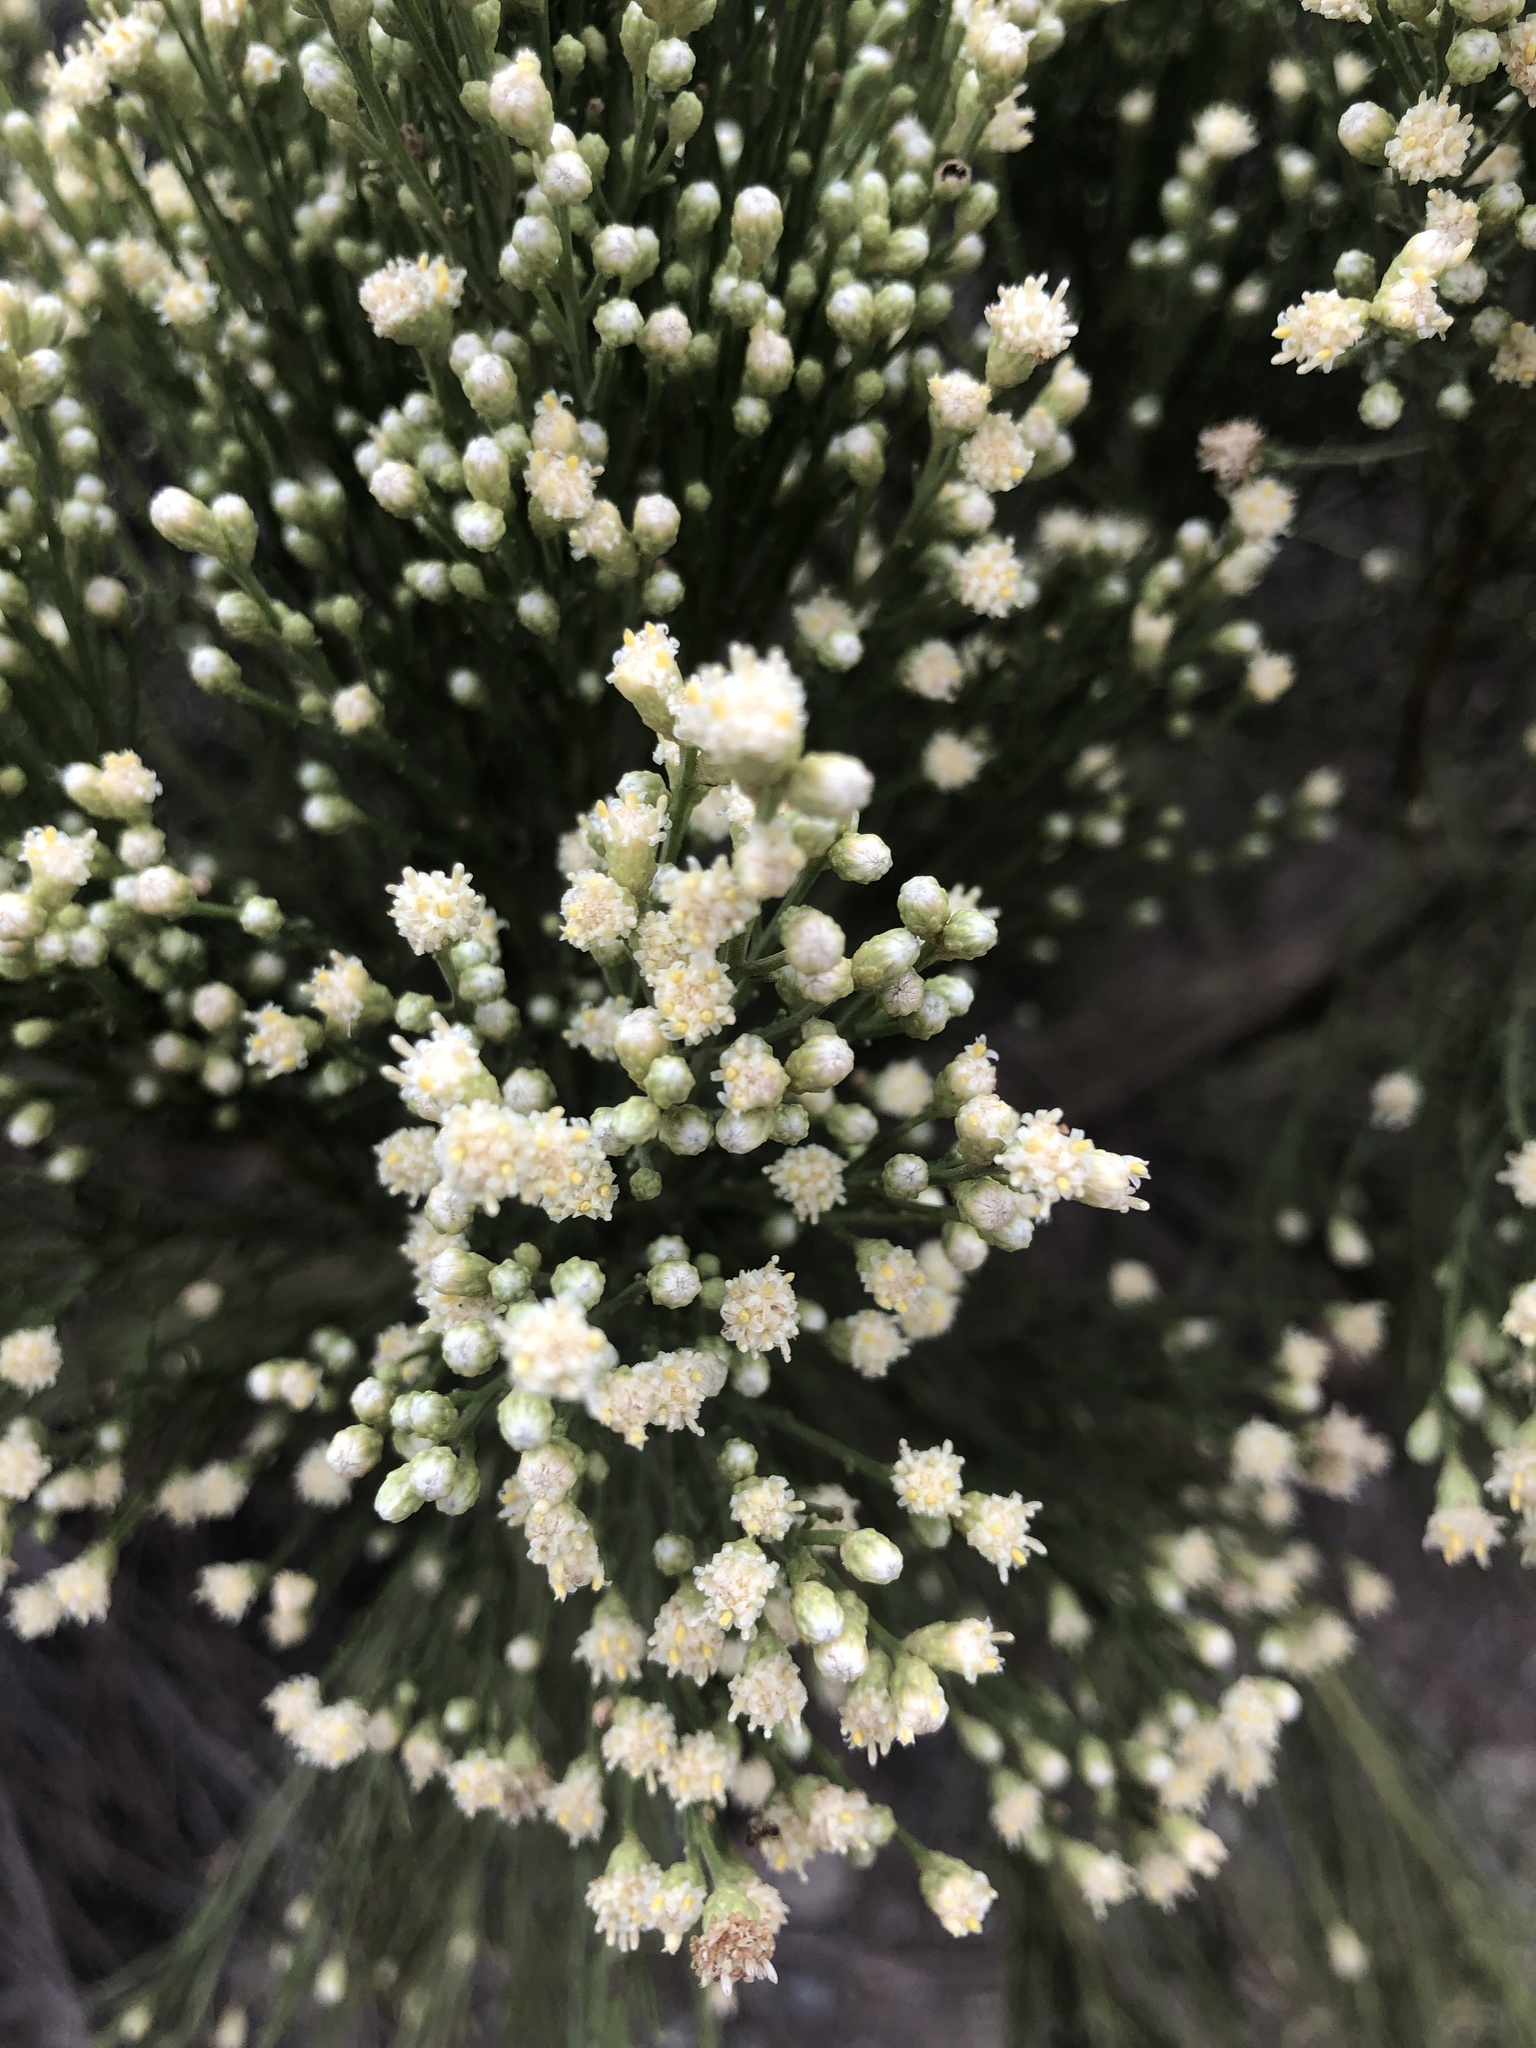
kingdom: Plantae
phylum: Tracheophyta
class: Magnoliopsida
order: Asterales
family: Asteraceae
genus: Baccharis
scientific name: Baccharis sarothroides
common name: Desert-broom
